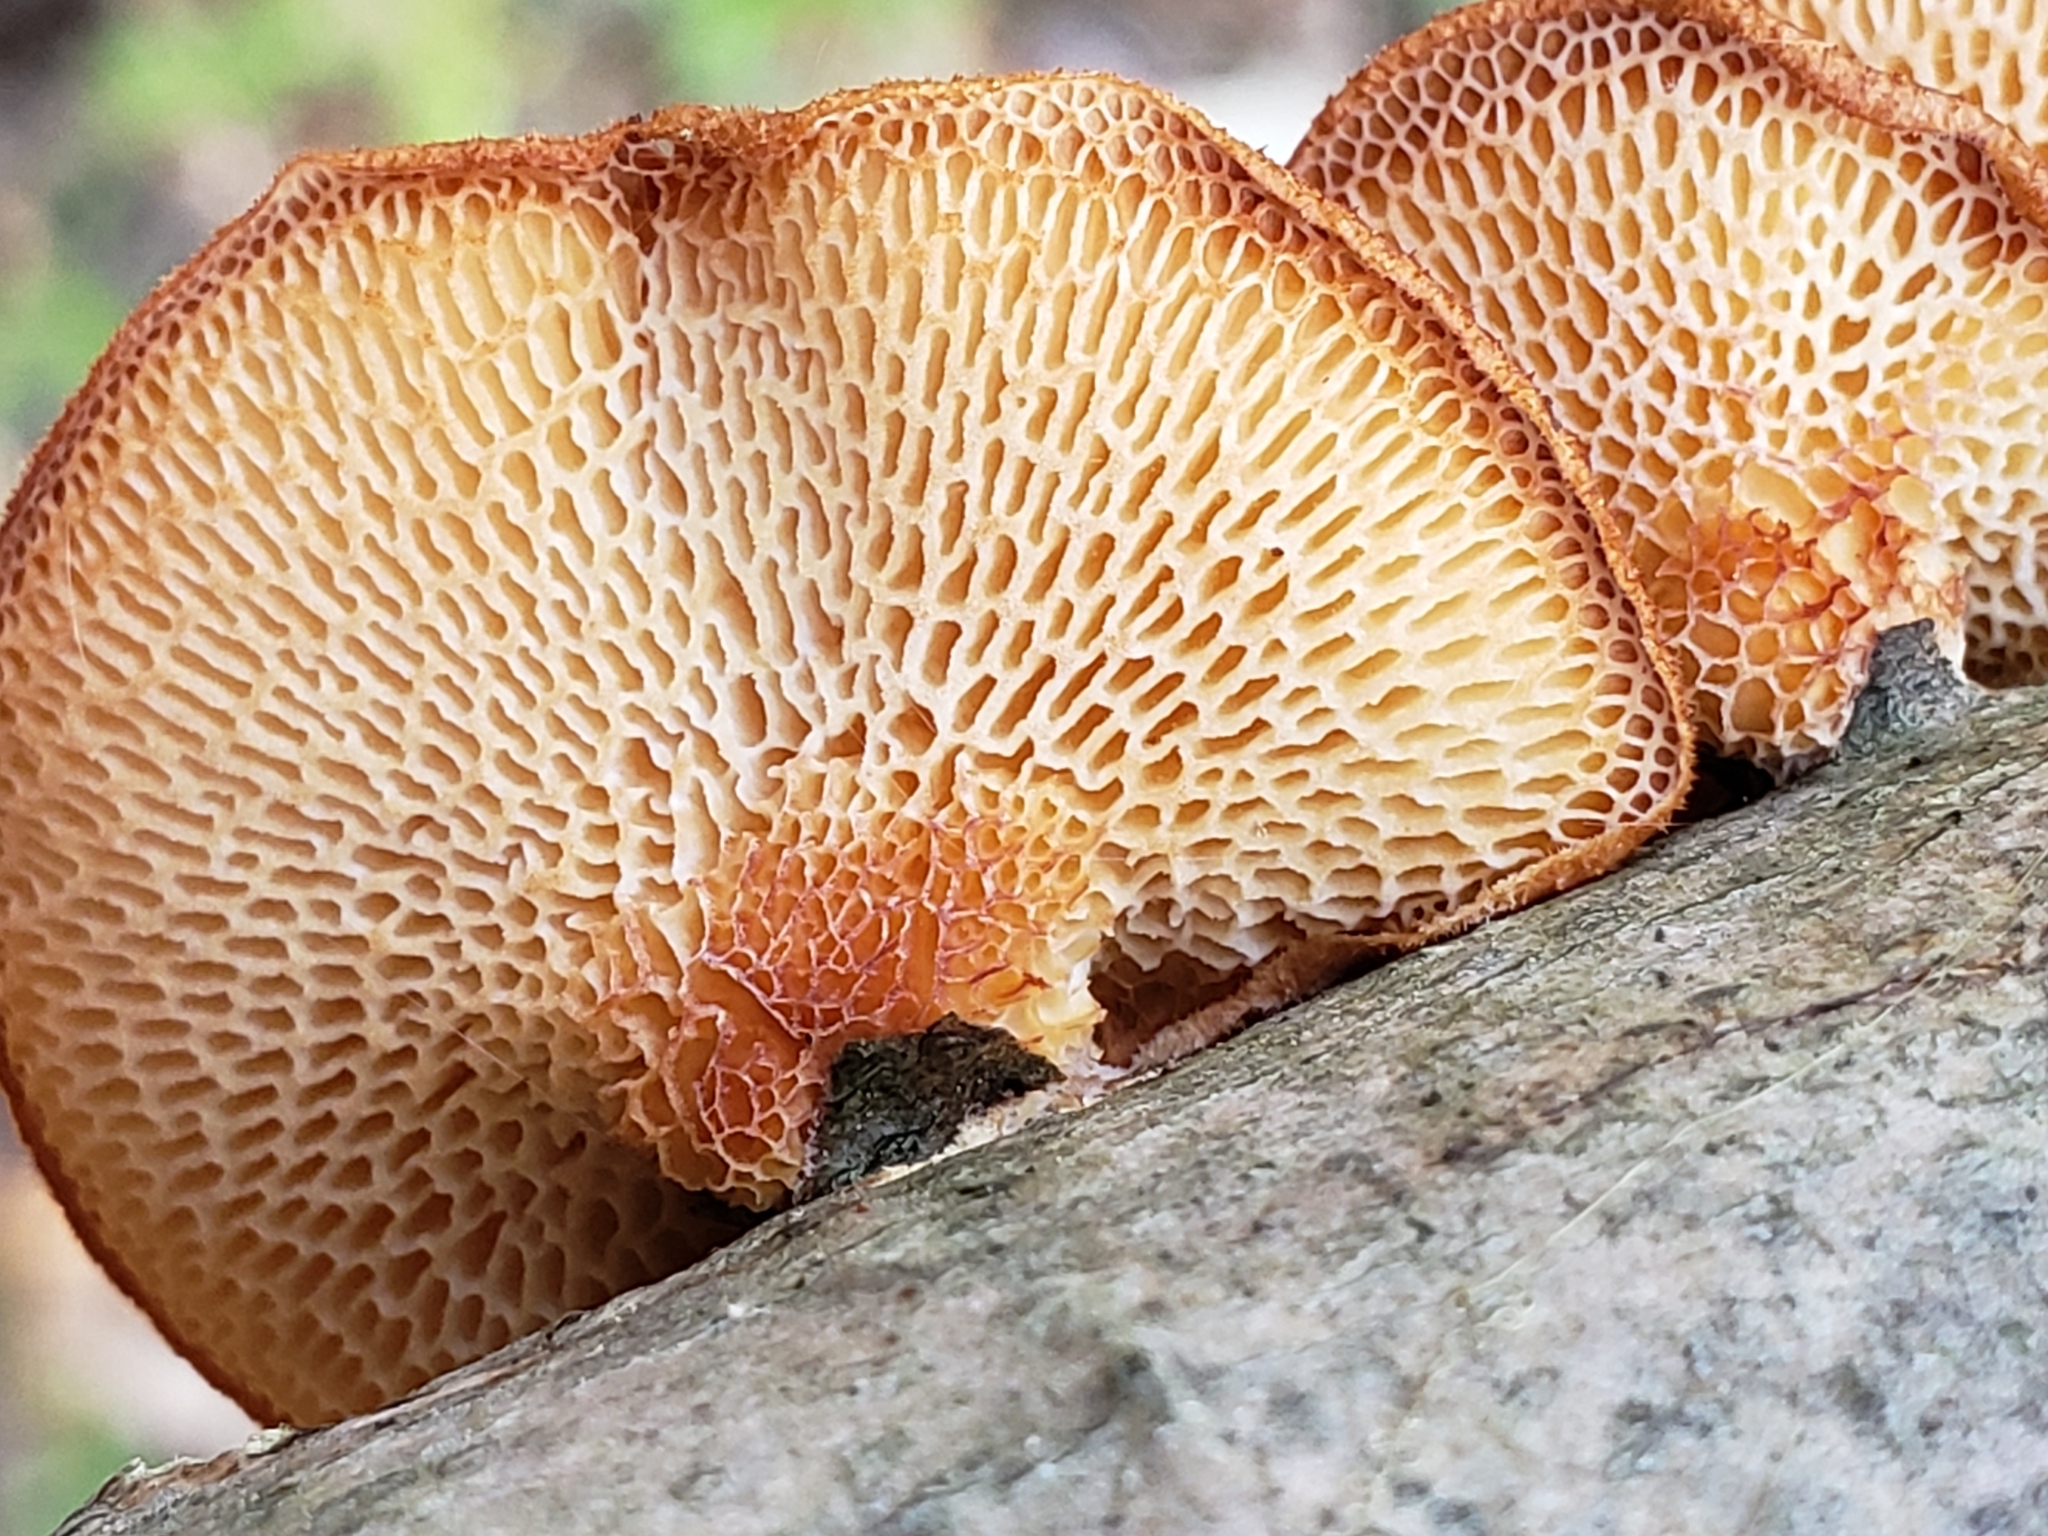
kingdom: Fungi
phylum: Basidiomycota
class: Agaricomycetes
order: Polyporales
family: Polyporaceae
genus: Neofavolus
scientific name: Neofavolus alveolaris
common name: Hexagonal-pored polypore
